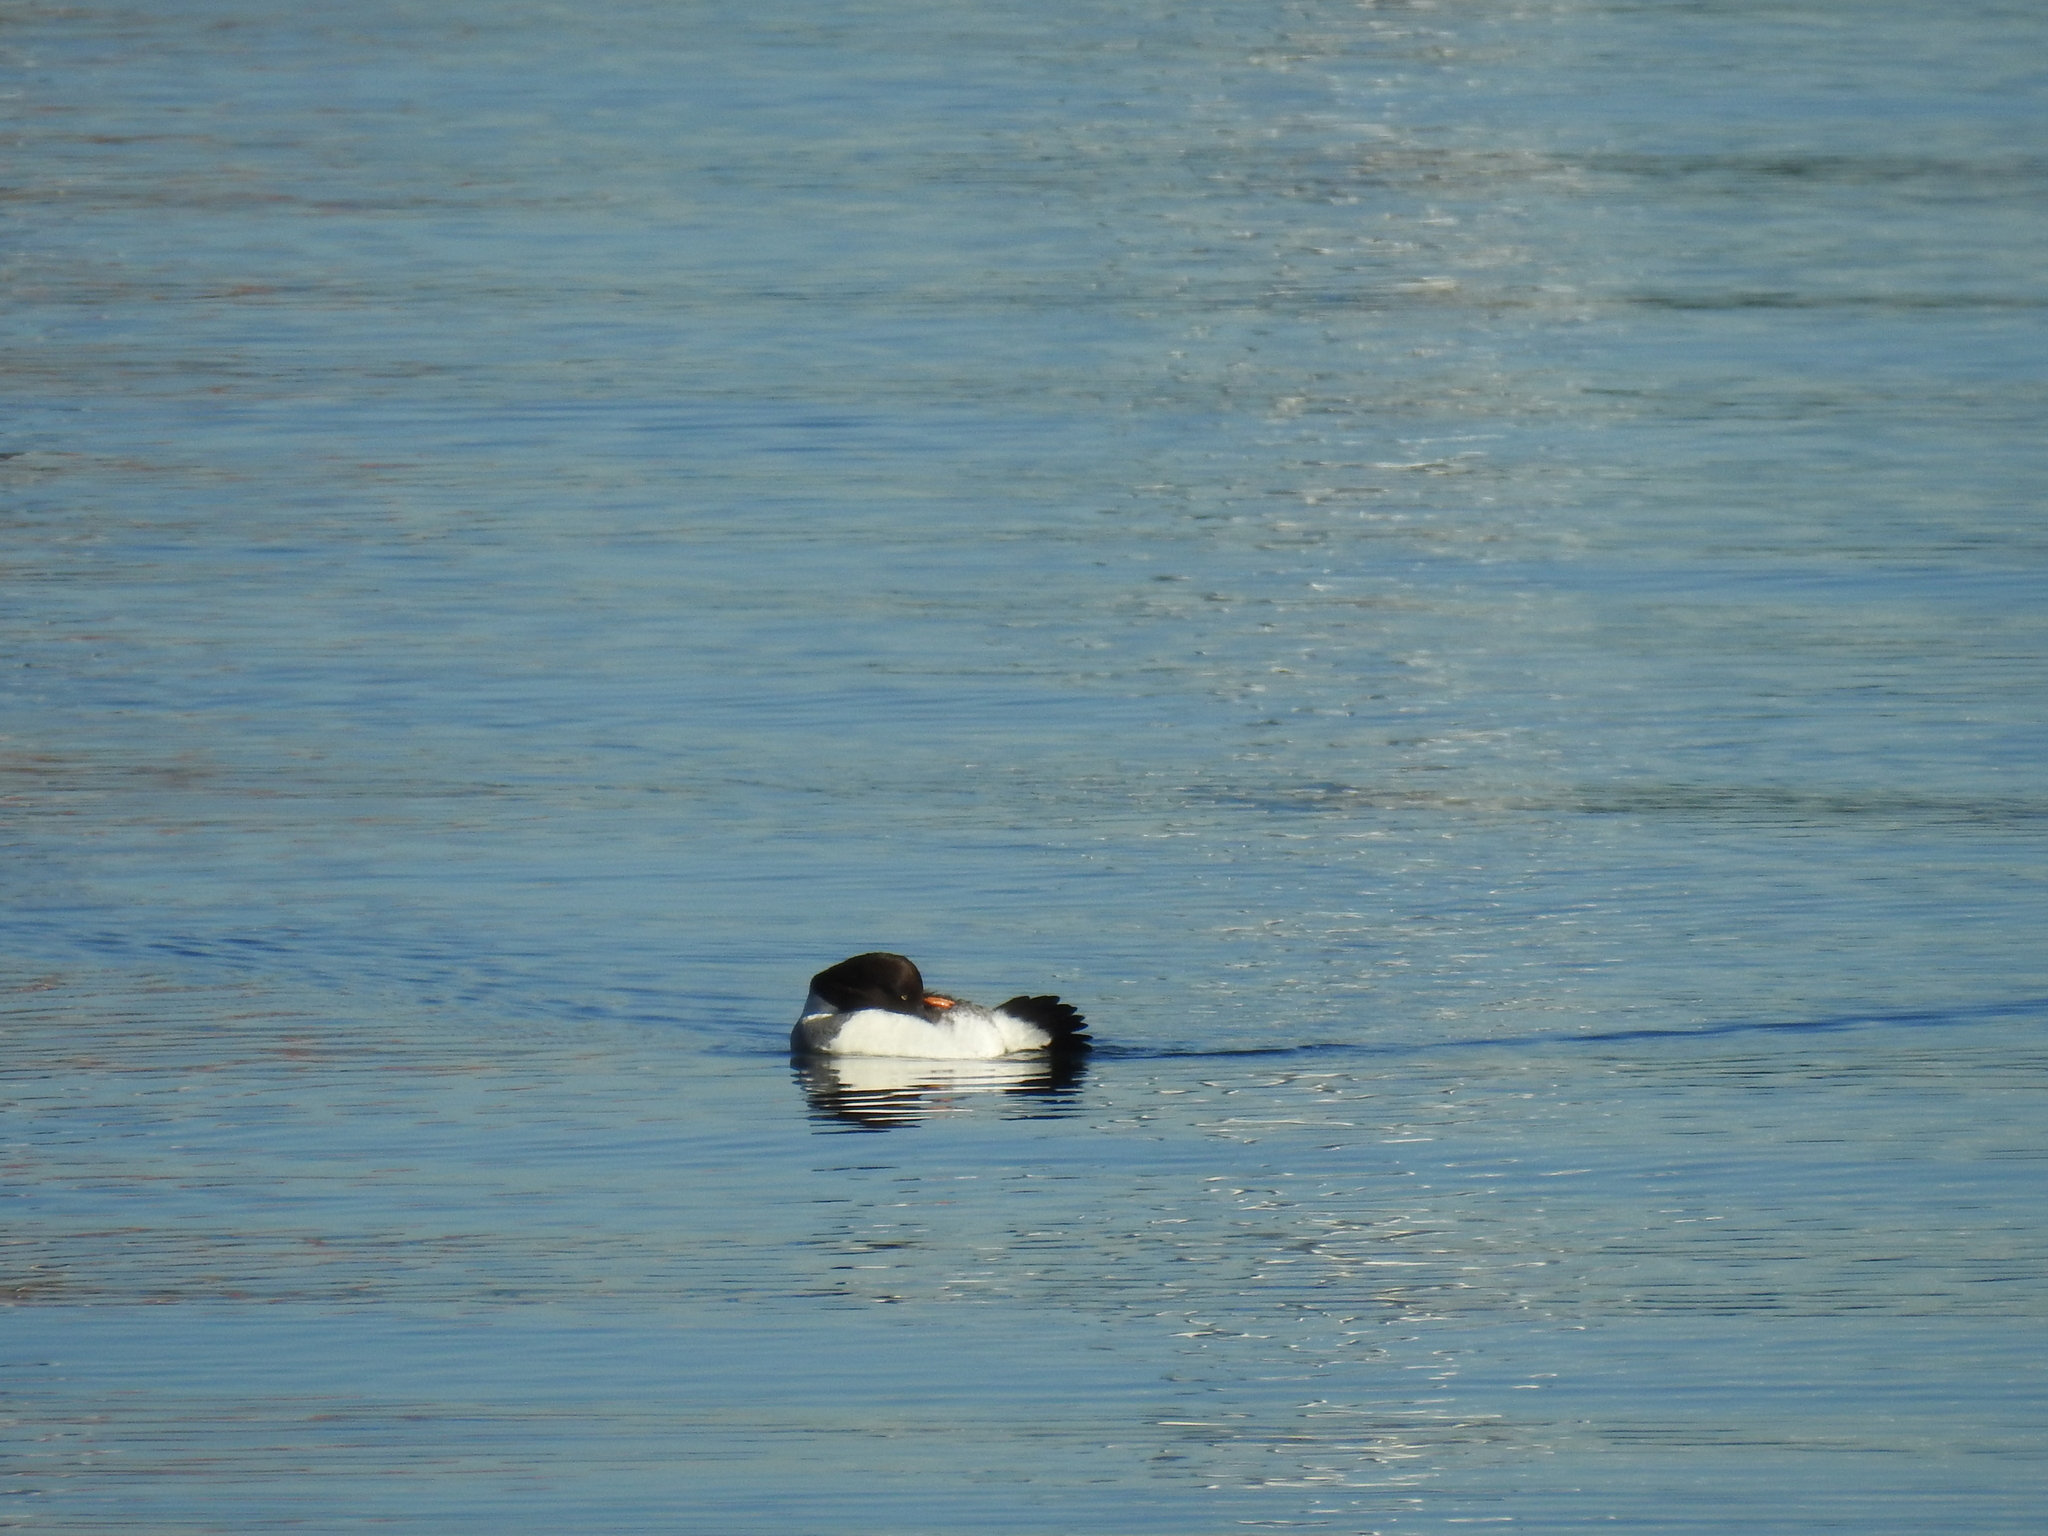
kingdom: Animalia
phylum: Chordata
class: Aves
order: Anseriformes
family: Anatidae
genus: Bucephala
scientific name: Bucephala clangula
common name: Common goldeneye
